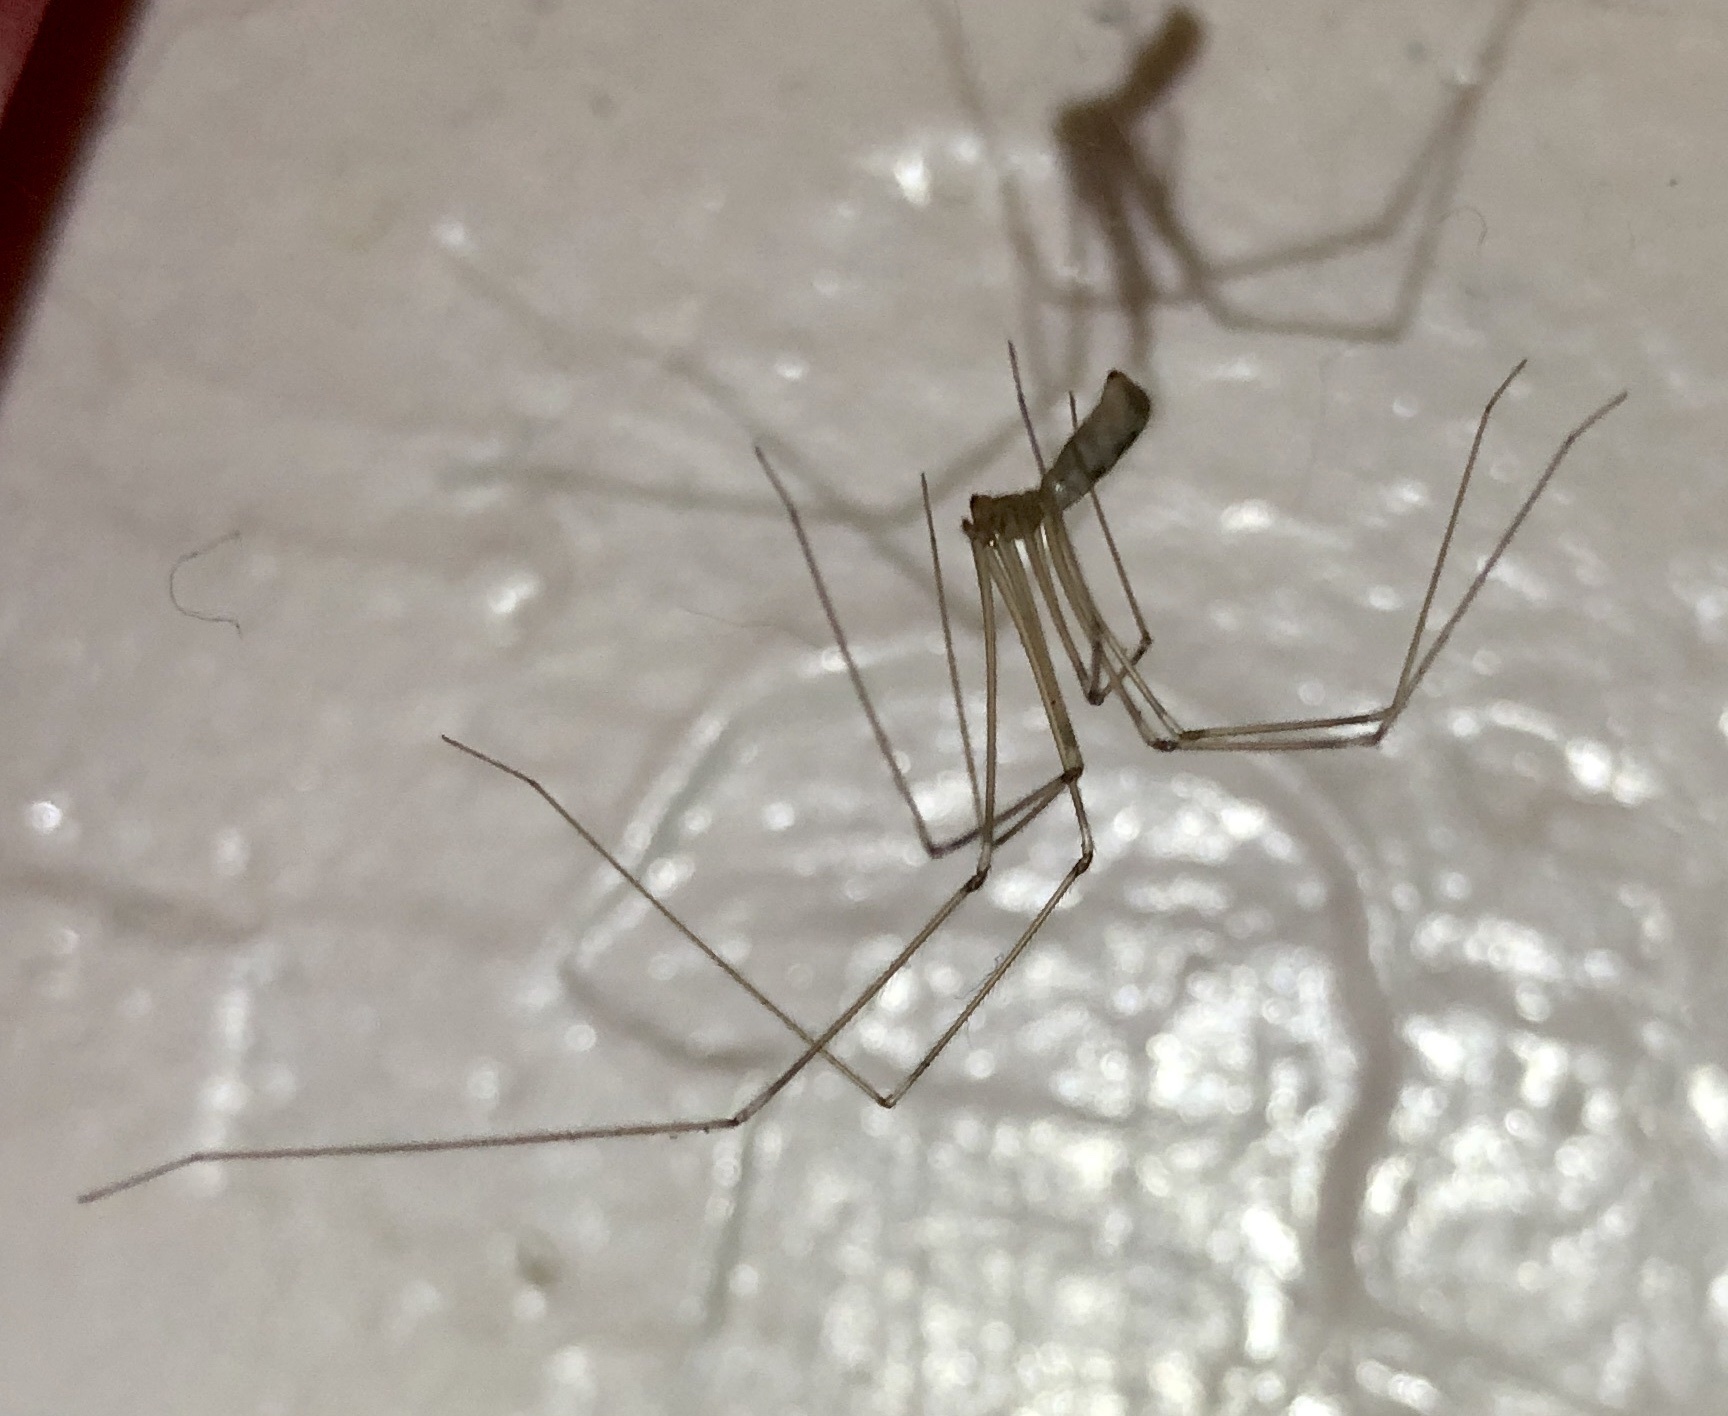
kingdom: Animalia
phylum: Arthropoda
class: Arachnida
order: Araneae
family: Pholcidae
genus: Pholcus
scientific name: Pholcus phalangioides
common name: Longbodied cellar spider
